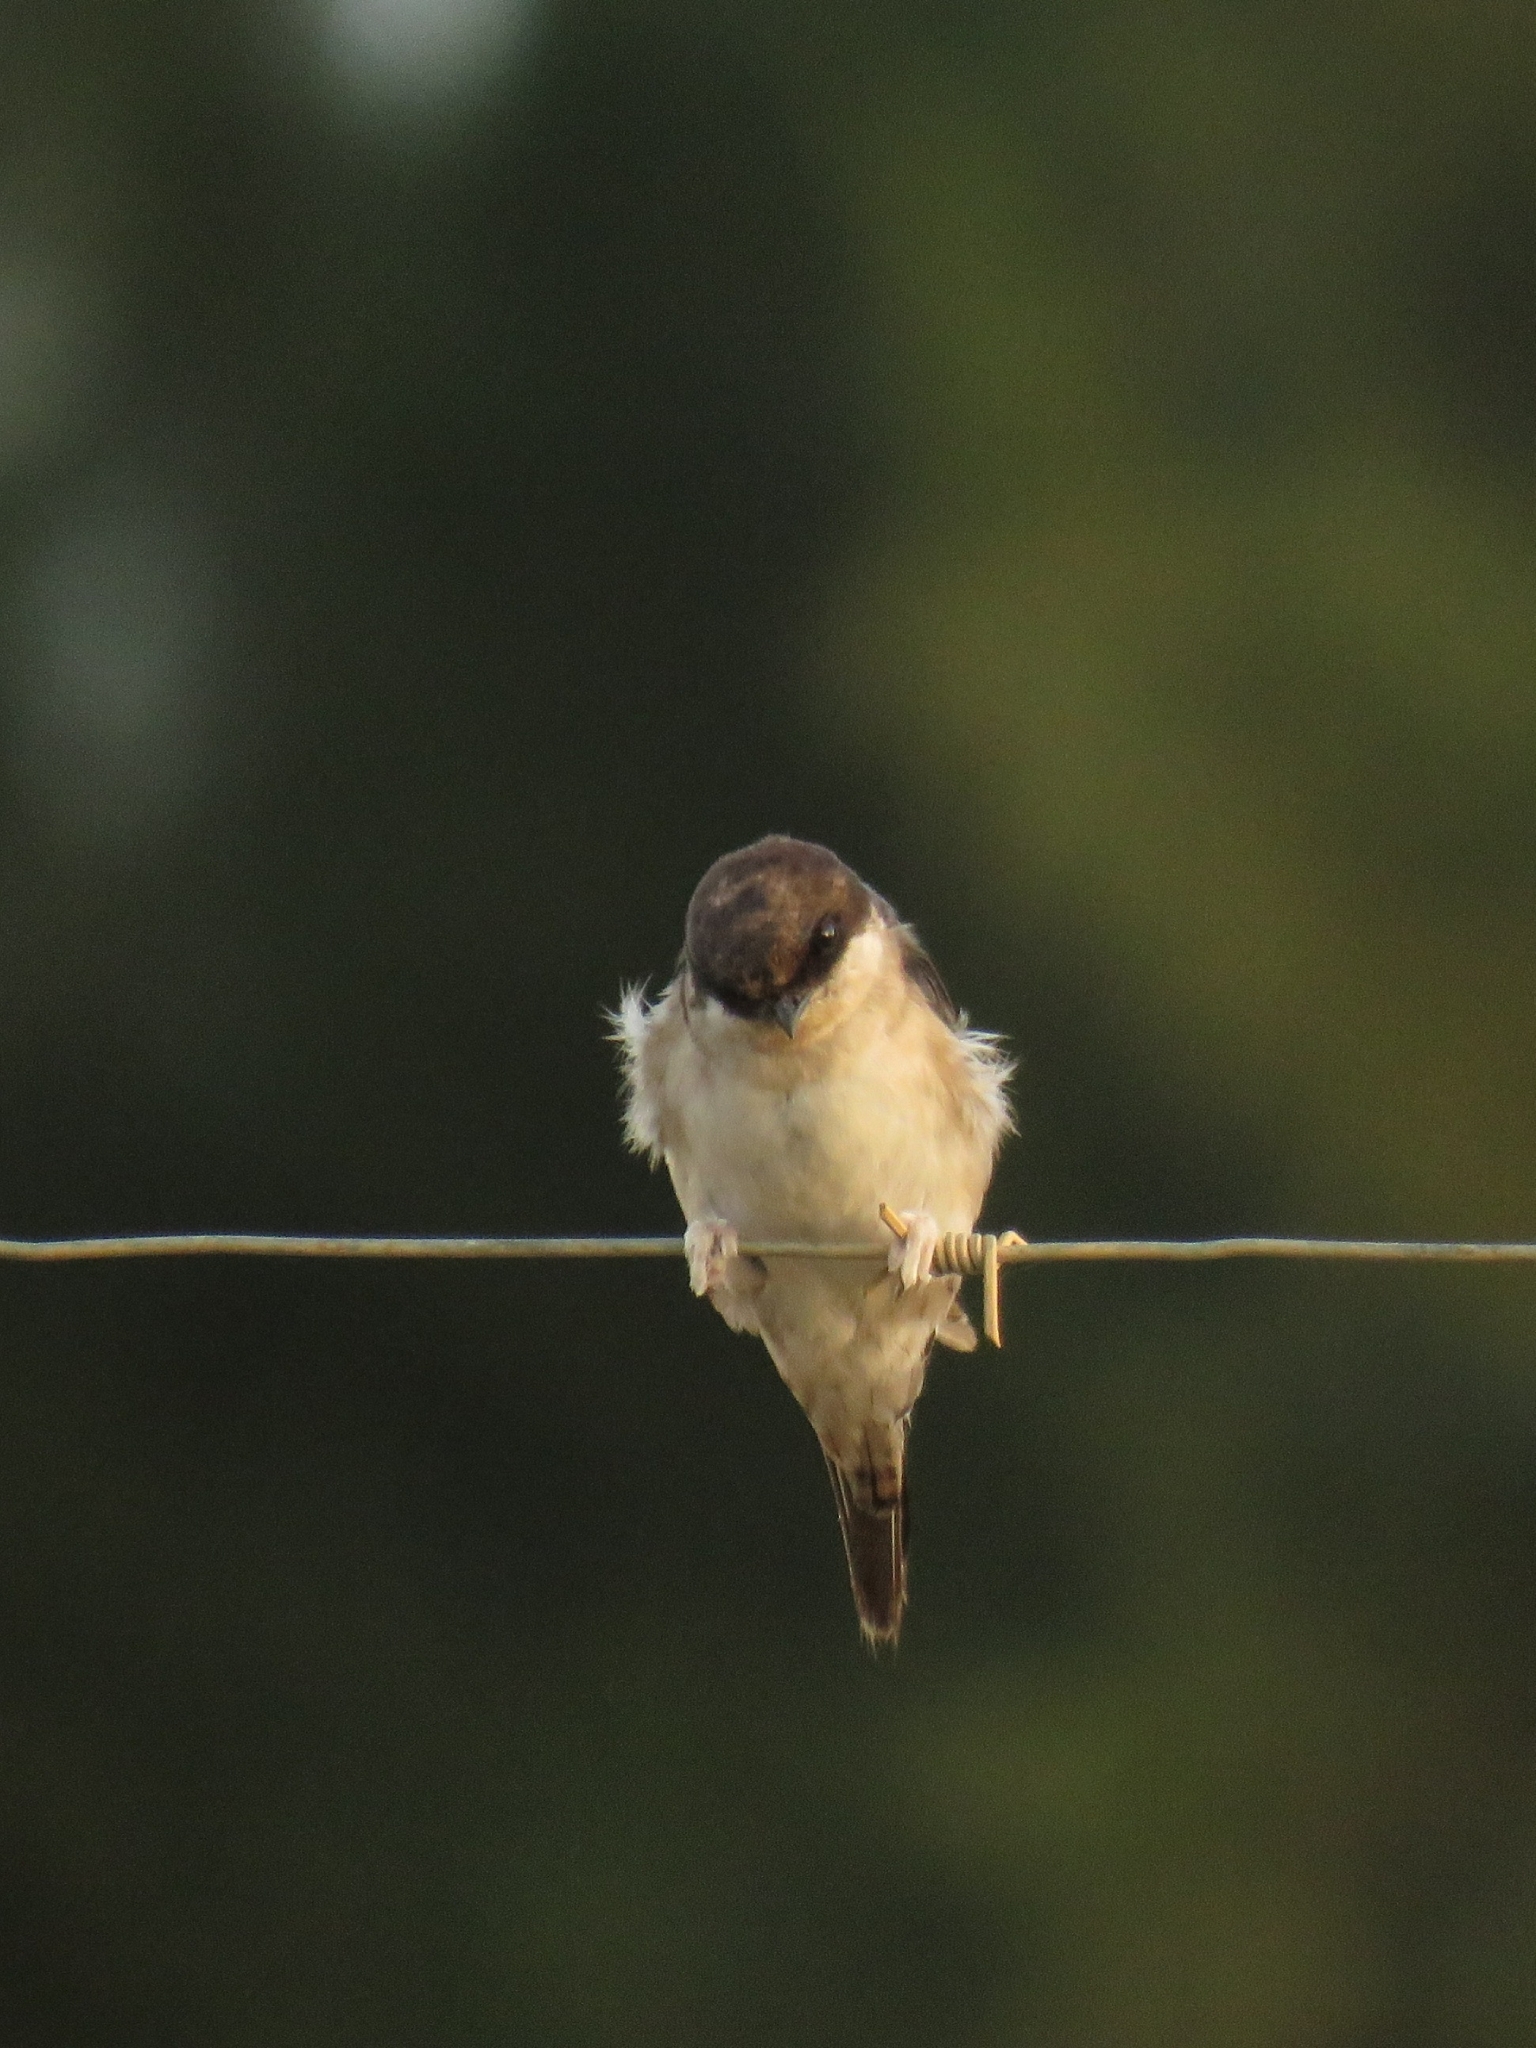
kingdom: Animalia
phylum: Chordata
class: Aves
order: Passeriformes
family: Hirundinidae
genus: Delichon
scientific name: Delichon urbicum
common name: Common house martin
